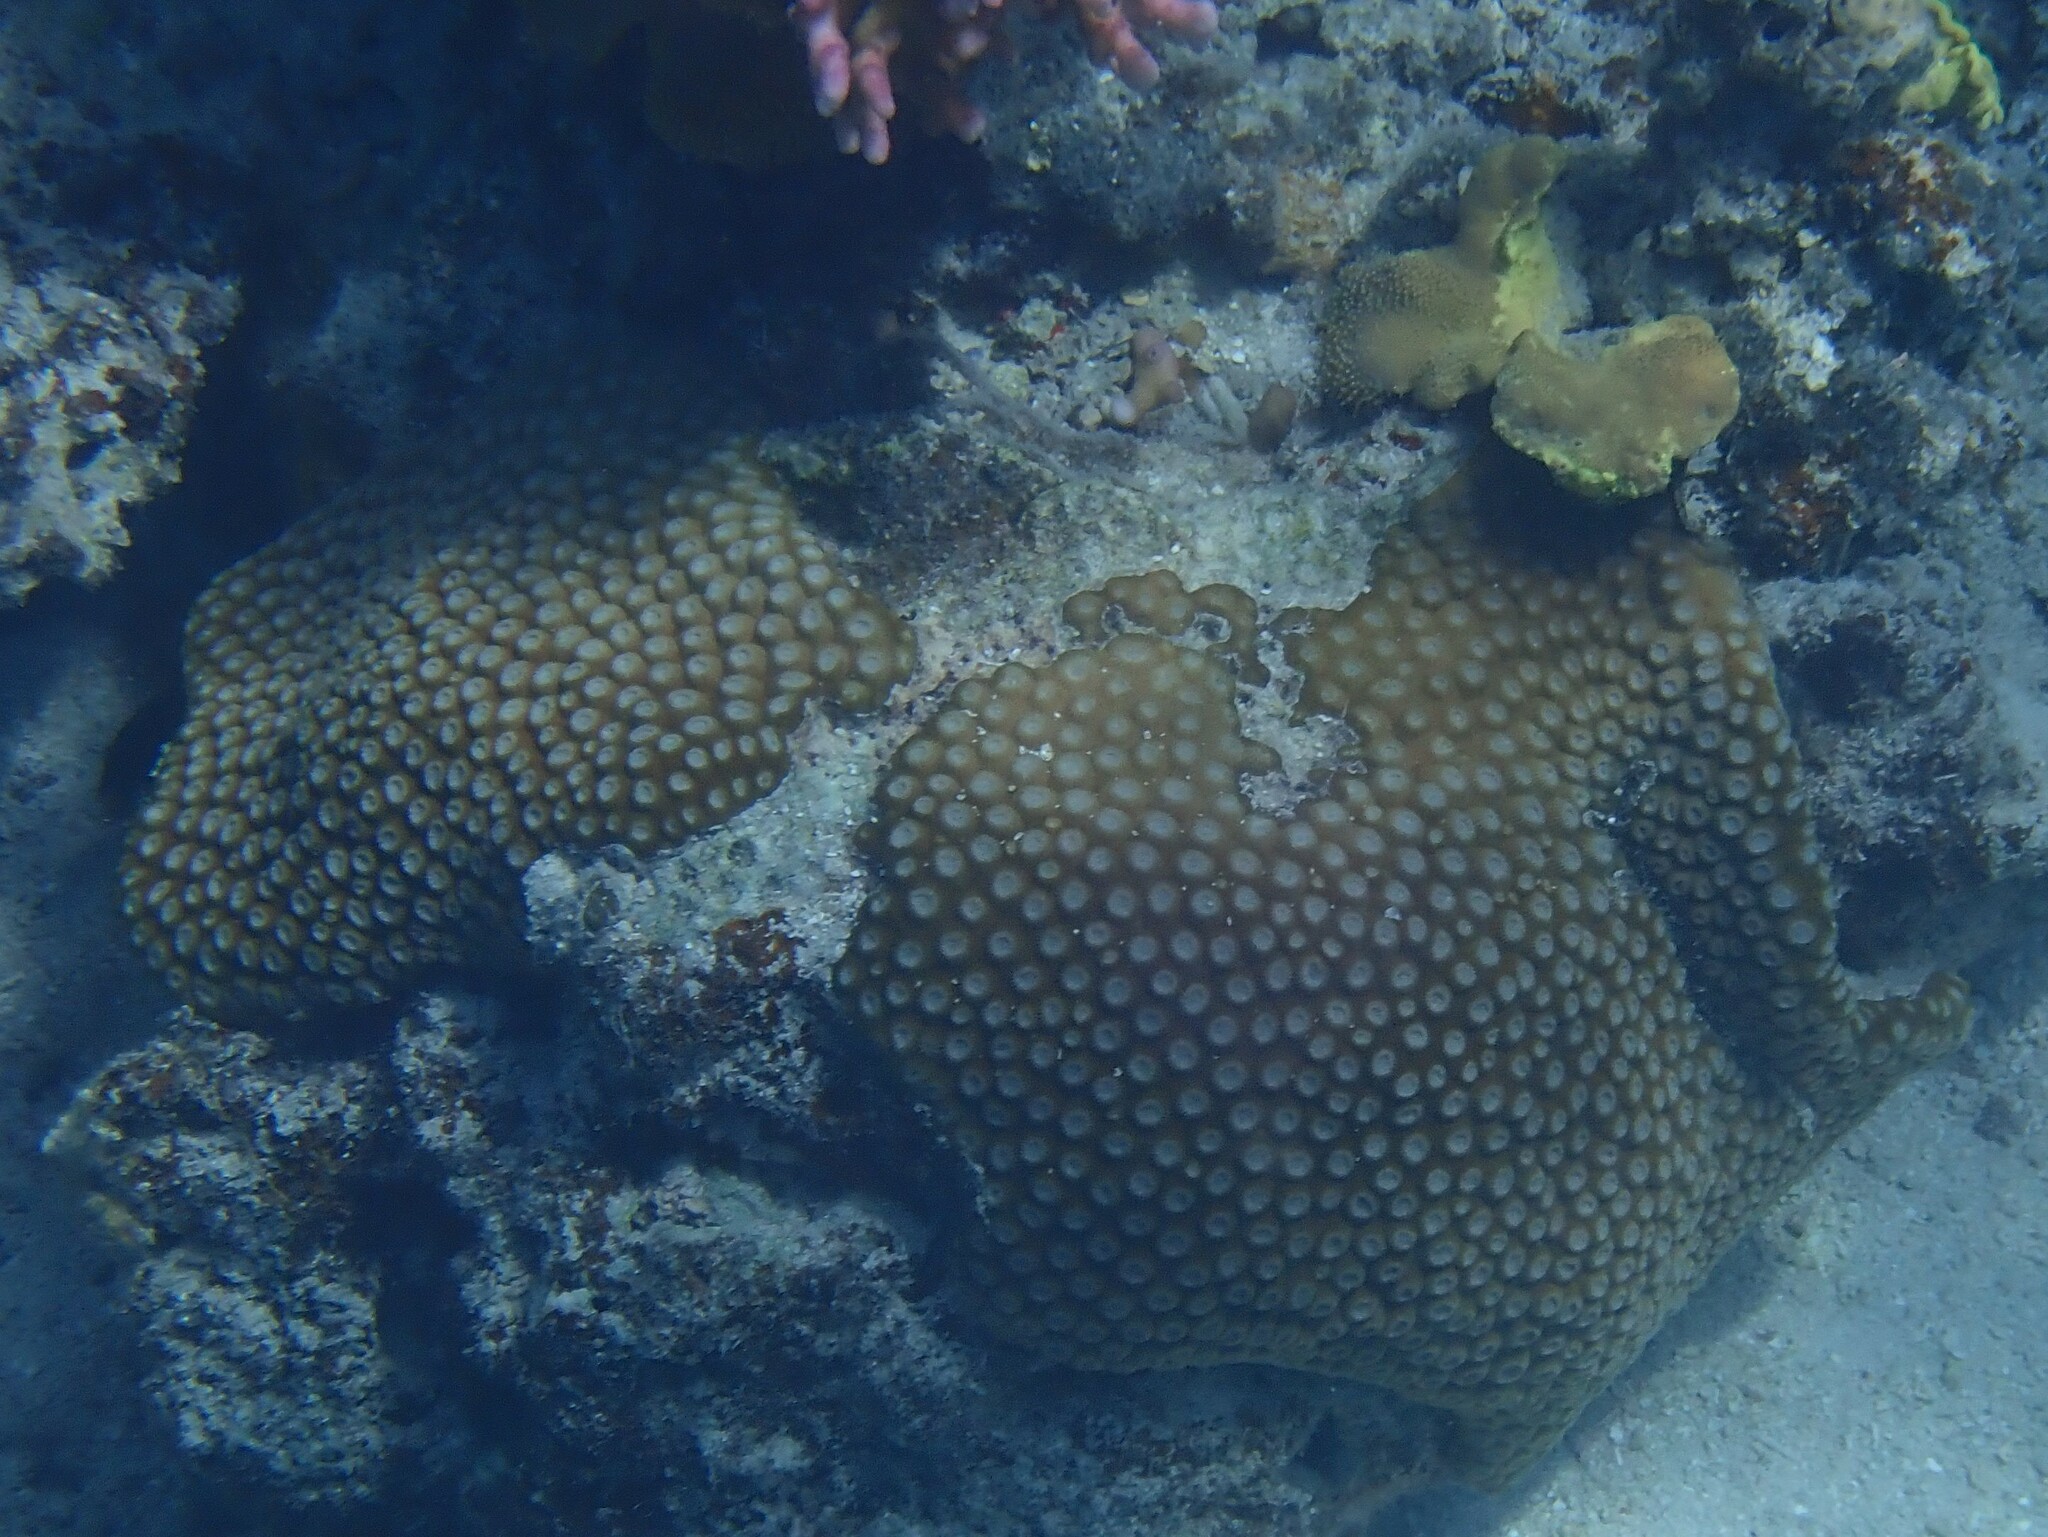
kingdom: Animalia
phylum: Cnidaria
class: Anthozoa
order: Scleractinia
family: Diploastraeidae
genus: Diploastrea
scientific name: Diploastrea heliopora
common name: Double-star coral
